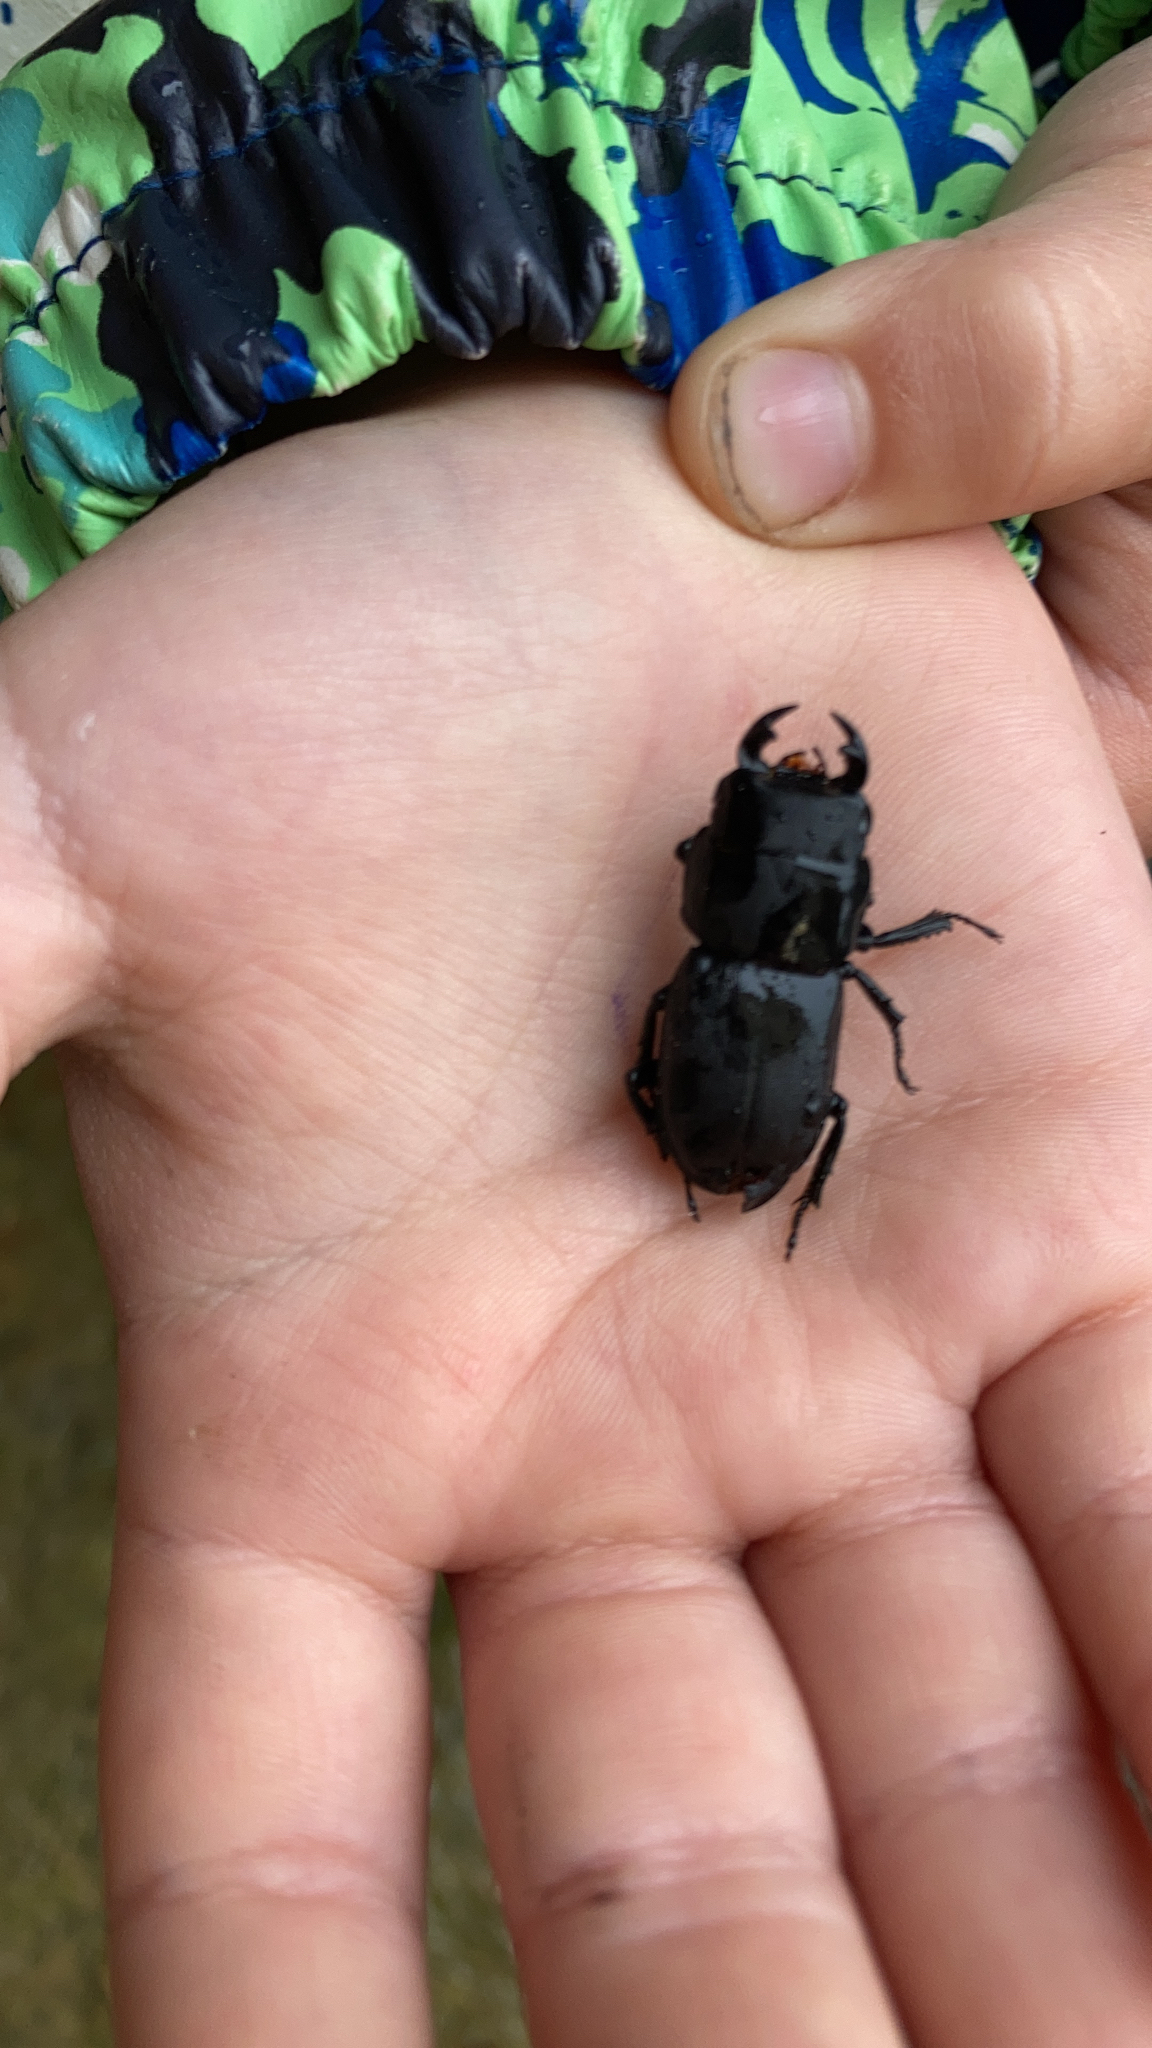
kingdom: Animalia
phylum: Arthropoda
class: Insecta
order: Coleoptera
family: Lucanidae
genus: Dorcus
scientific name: Dorcus parallelipipedus
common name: Lesser stag beetle
